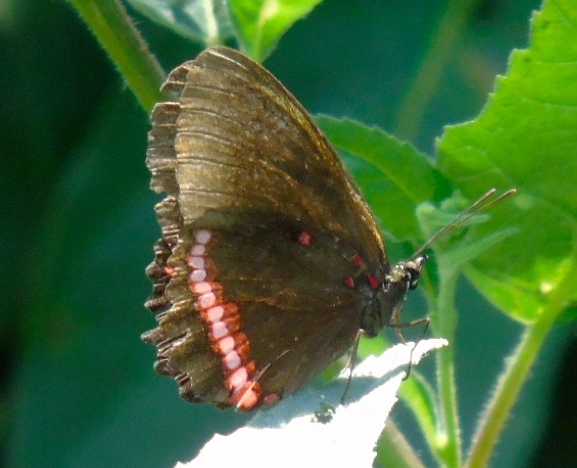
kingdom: Animalia
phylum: Arthropoda
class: Insecta
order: Lepidoptera
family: Nymphalidae
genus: Biblis
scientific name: Biblis
